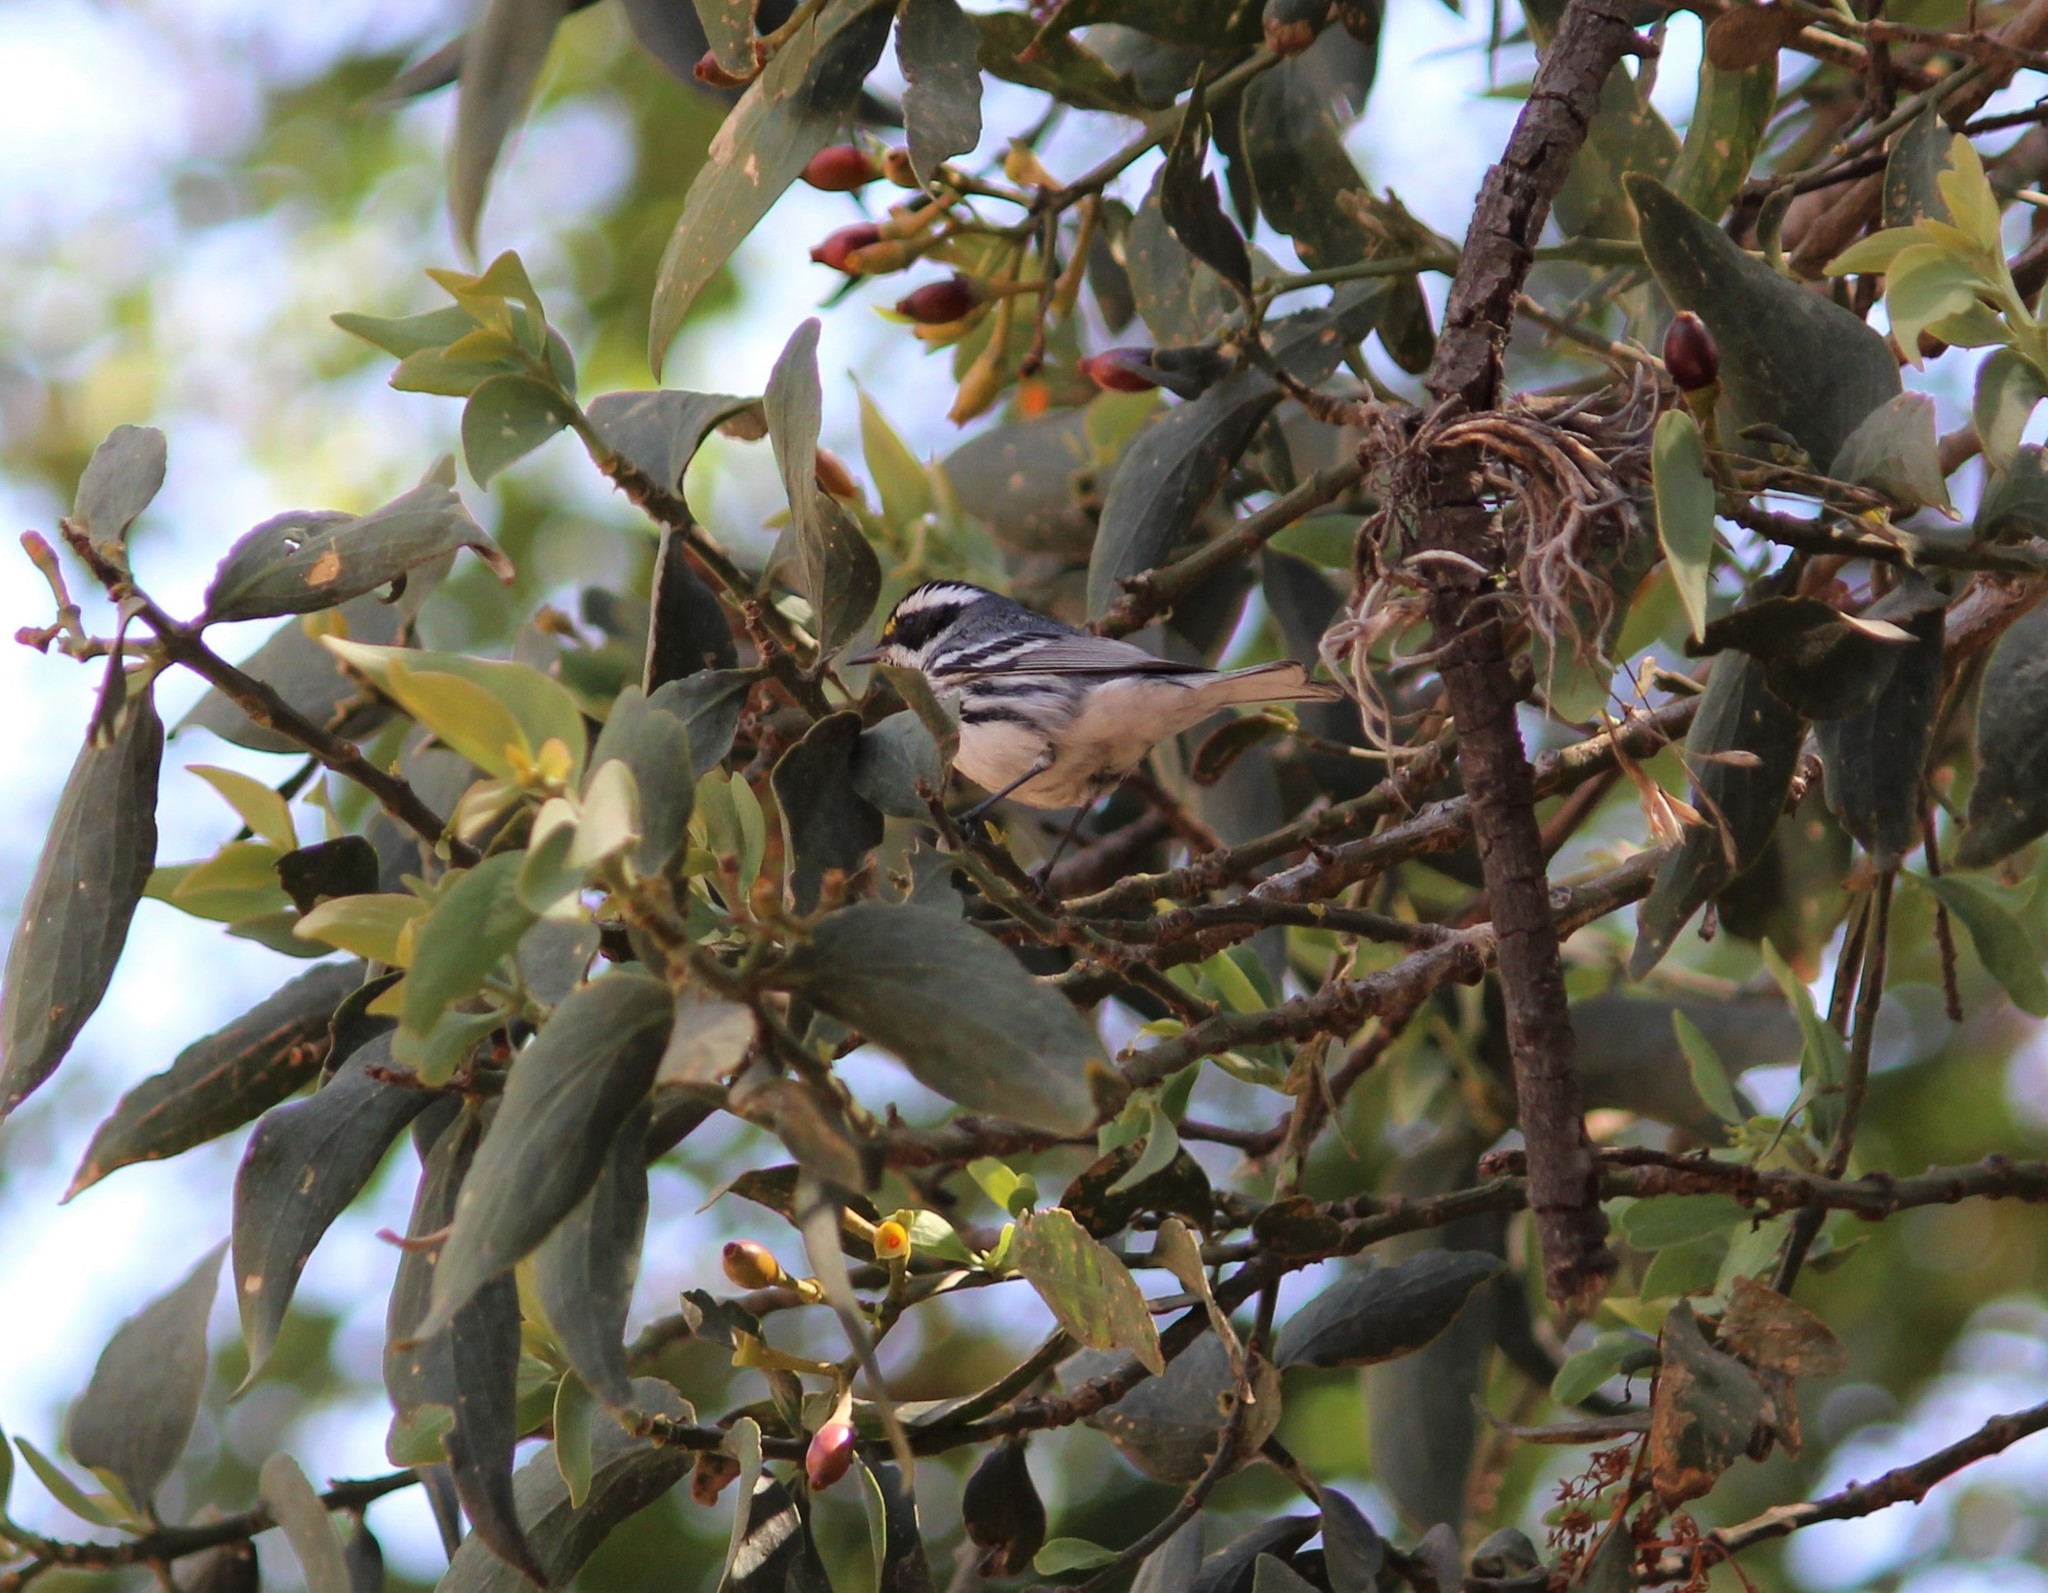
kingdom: Animalia
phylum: Chordata
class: Aves
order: Passeriformes
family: Parulidae
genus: Setophaga
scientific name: Setophaga nigrescens
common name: Black-throated gray warbler
